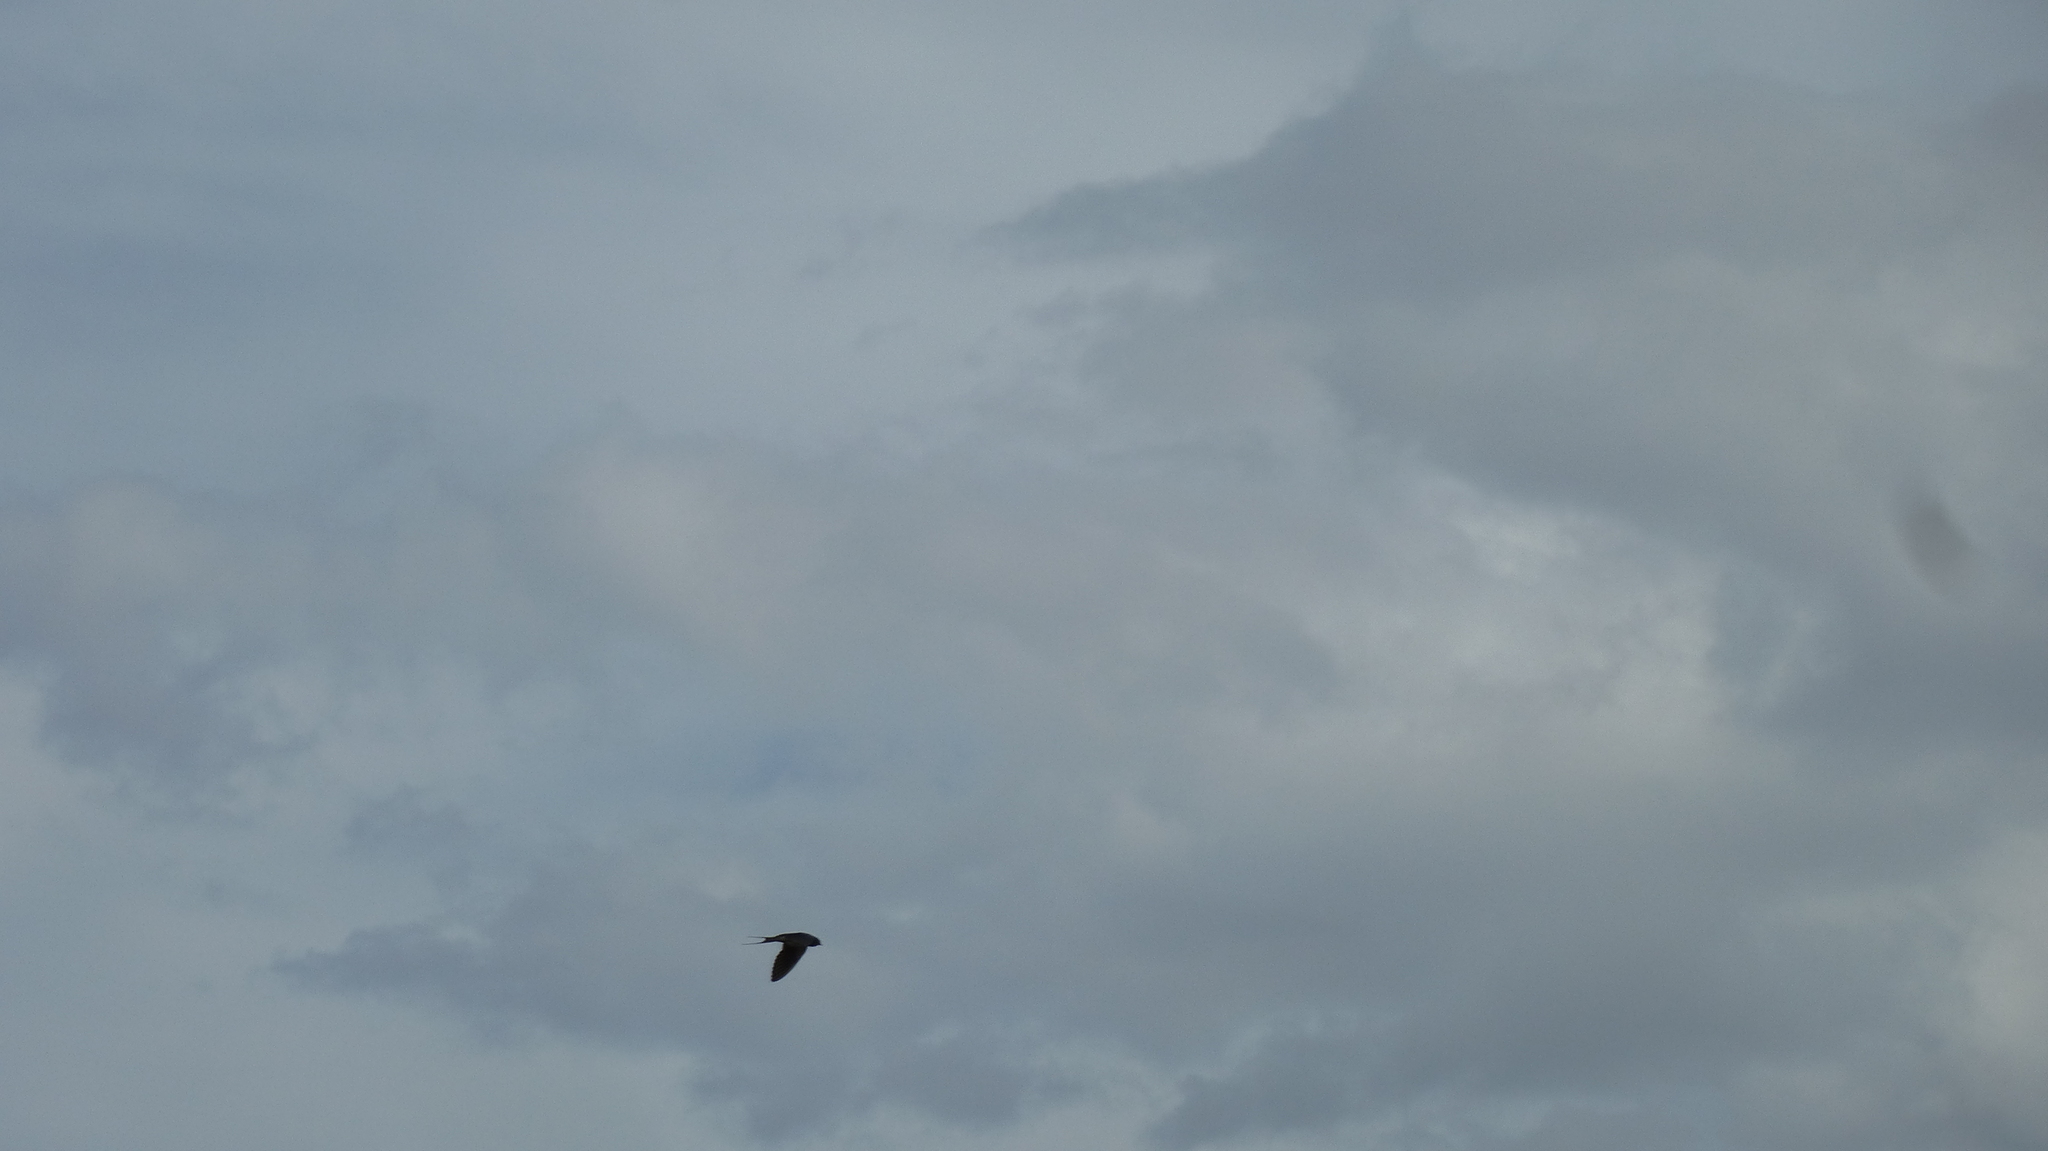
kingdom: Animalia
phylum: Chordata
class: Aves
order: Passeriformes
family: Hirundinidae
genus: Hirundo
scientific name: Hirundo rustica
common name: Barn swallow
